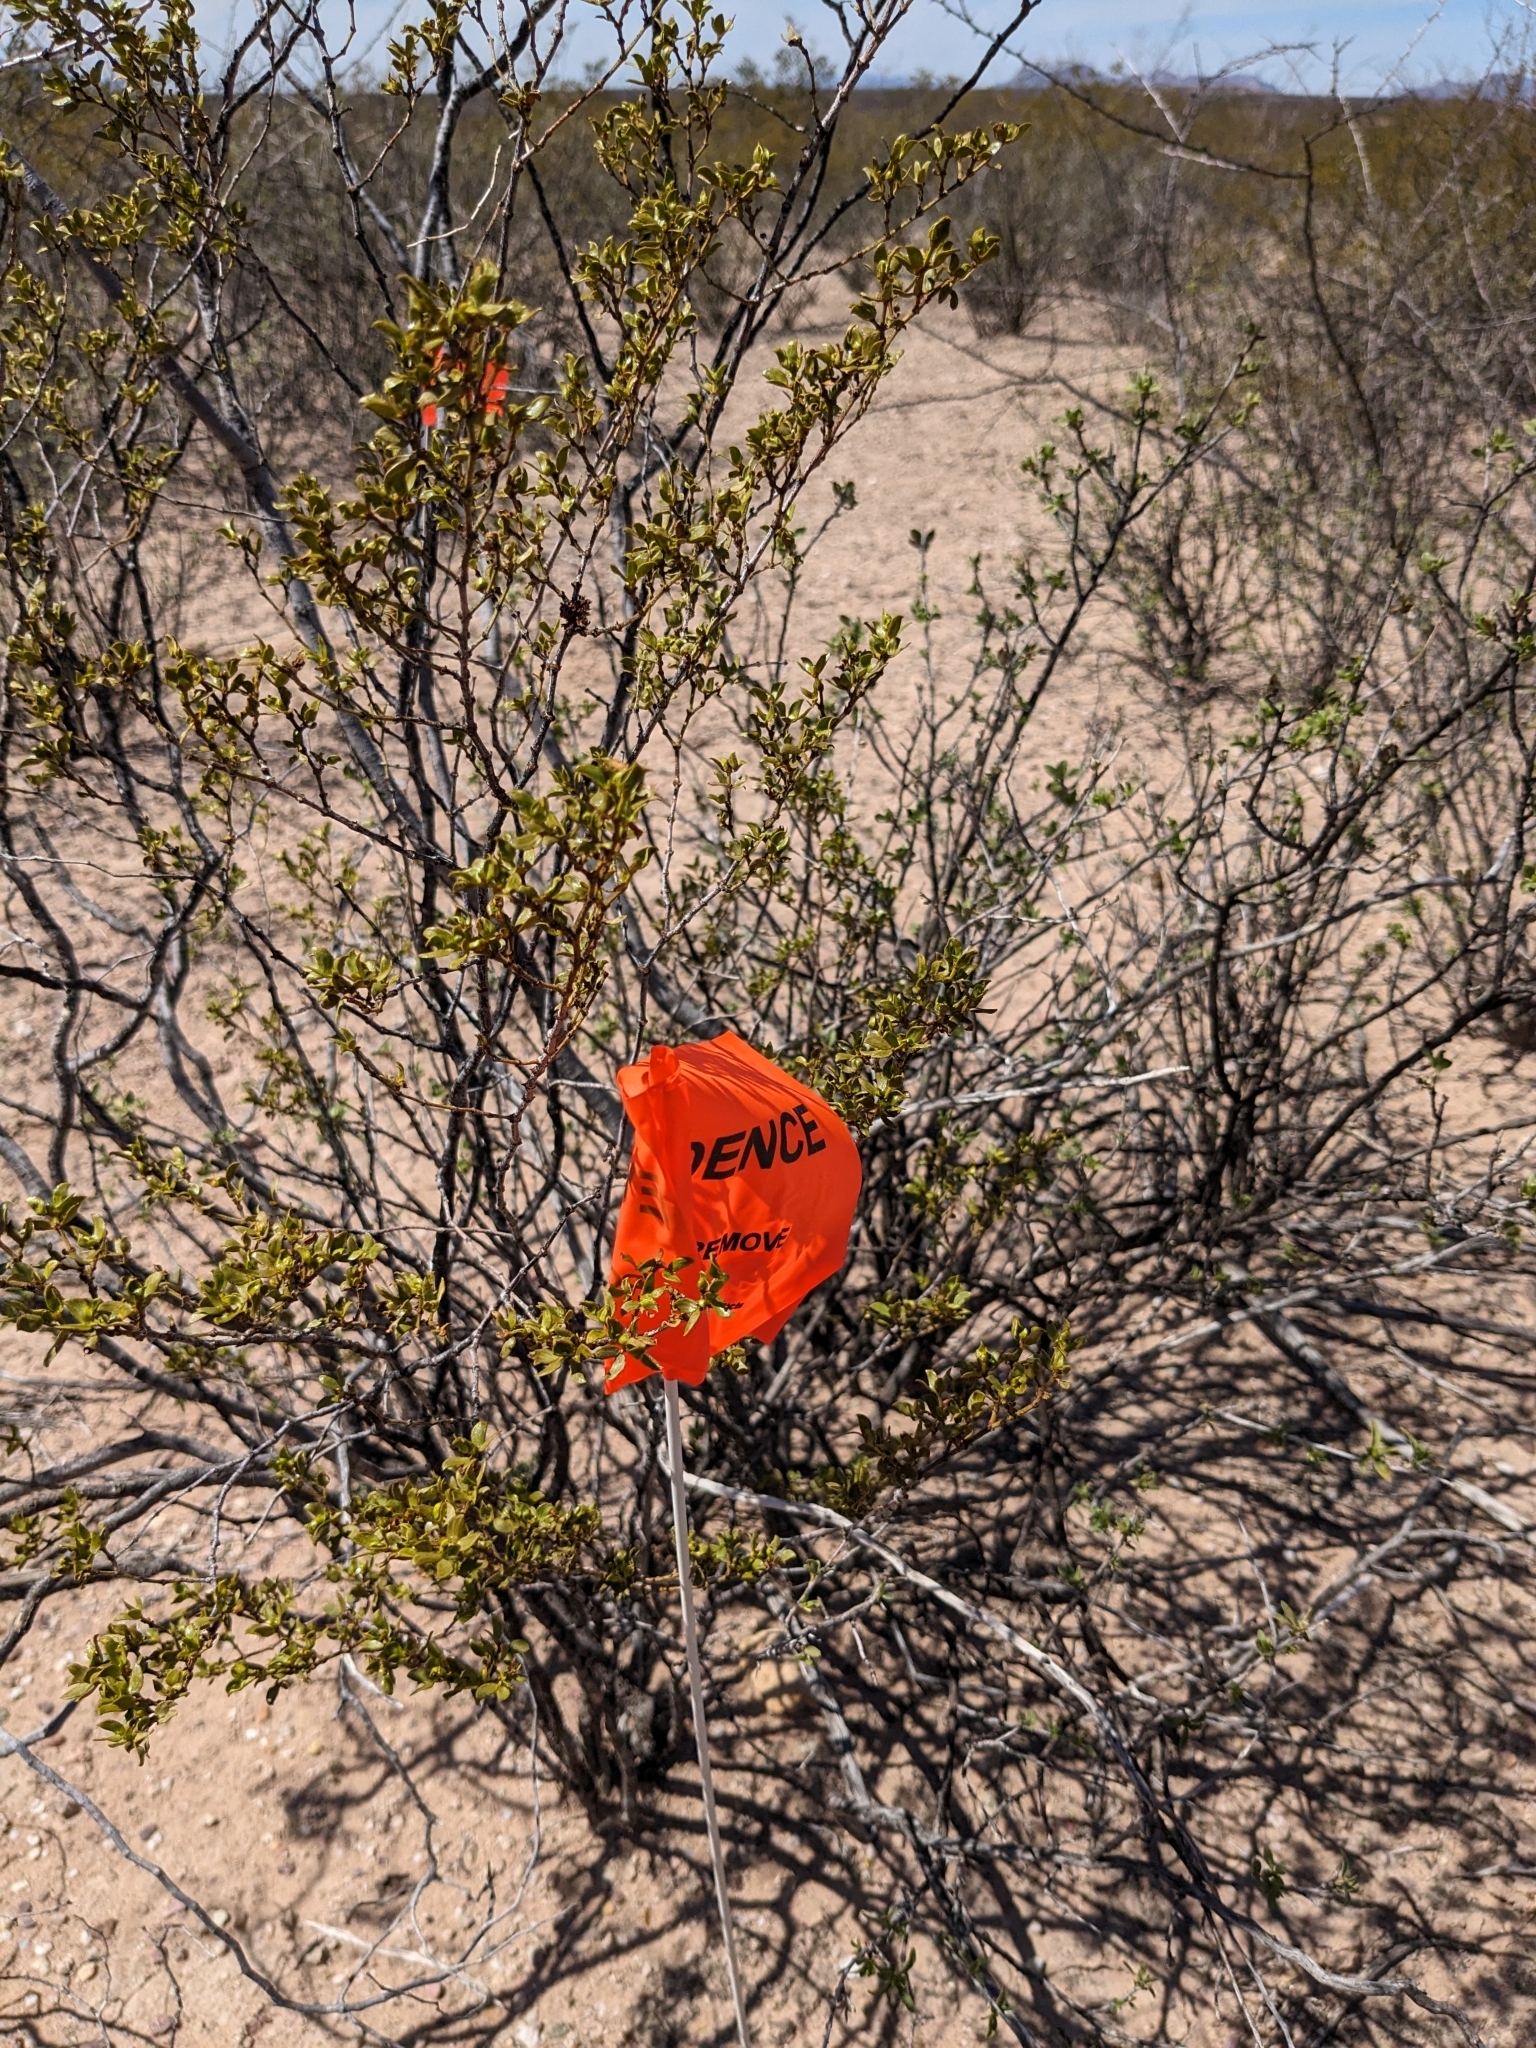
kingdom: Plantae
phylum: Tracheophyta
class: Magnoliopsida
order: Zygophyllales
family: Zygophyllaceae
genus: Larrea
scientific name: Larrea tridentata
